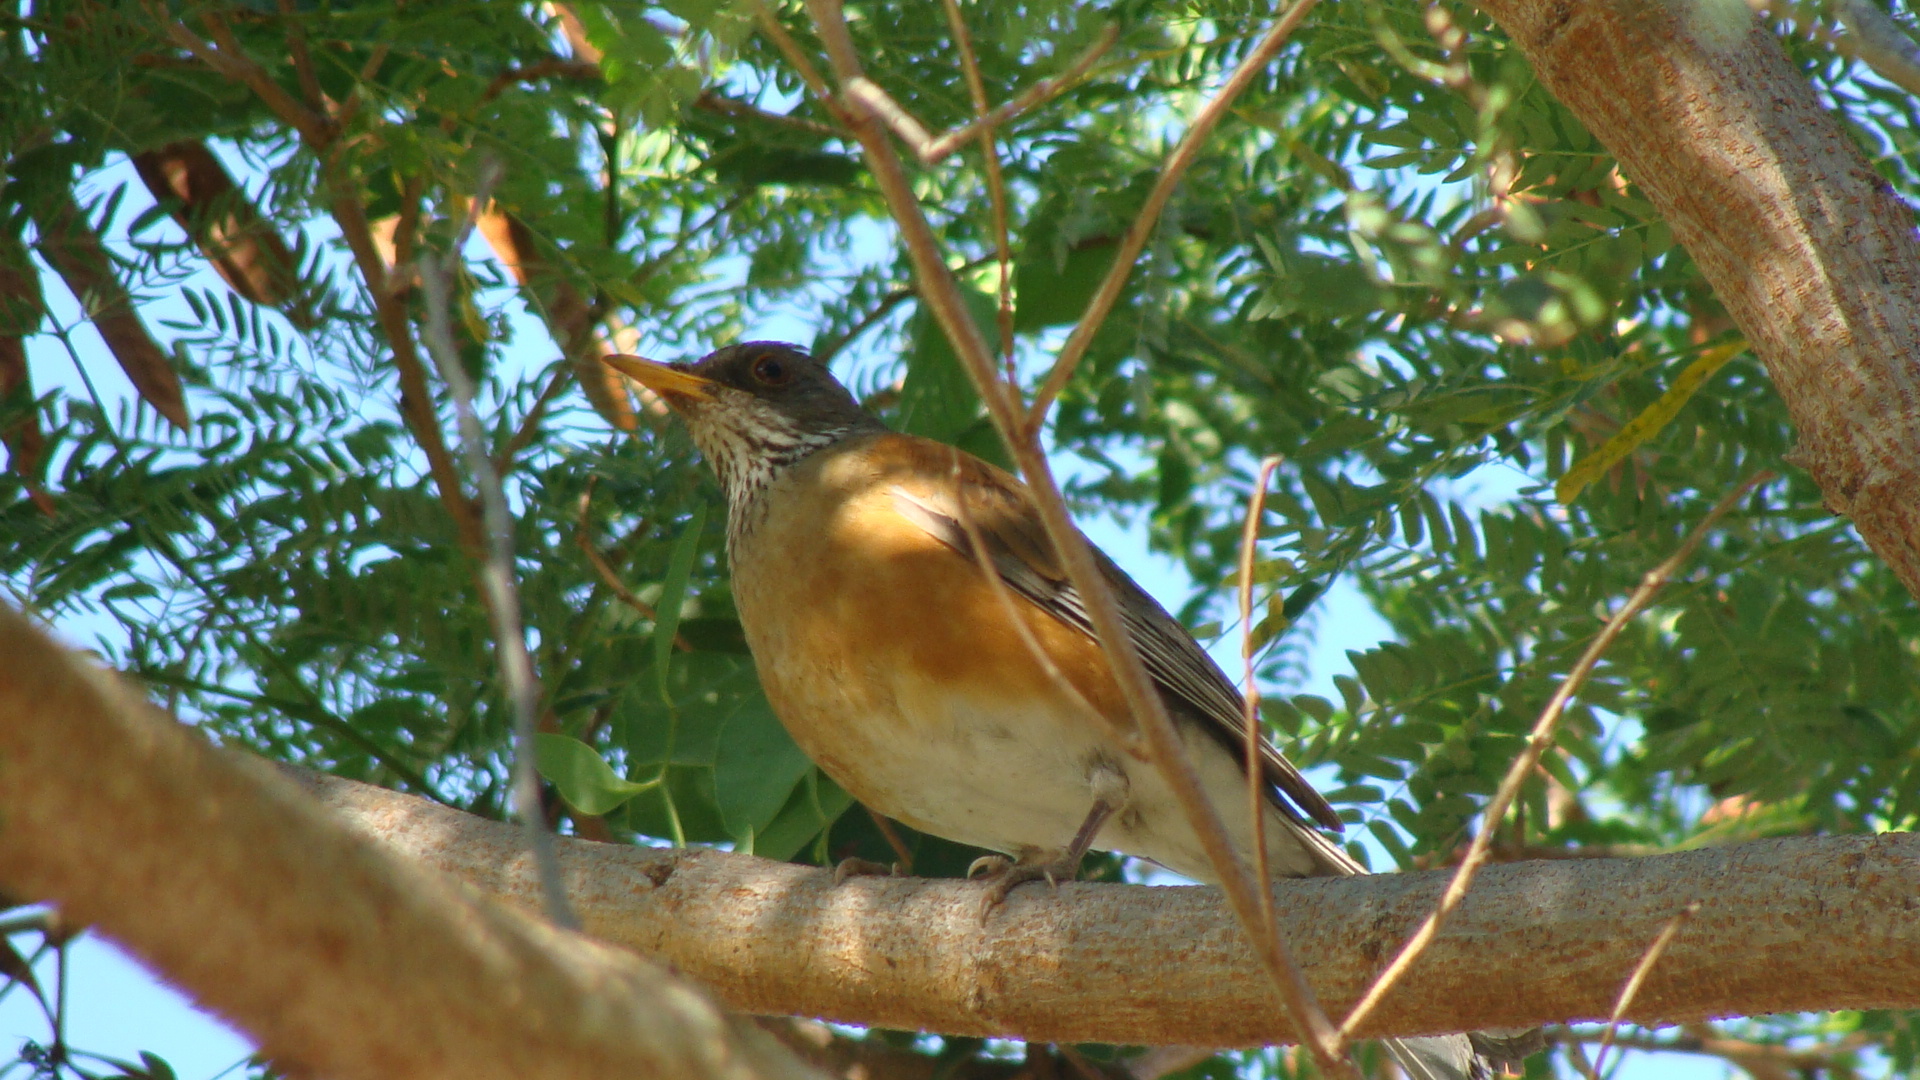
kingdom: Animalia
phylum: Chordata
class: Aves
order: Passeriformes
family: Turdidae
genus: Turdus
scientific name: Turdus rufopalliatus
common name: Rufous-backed robin
